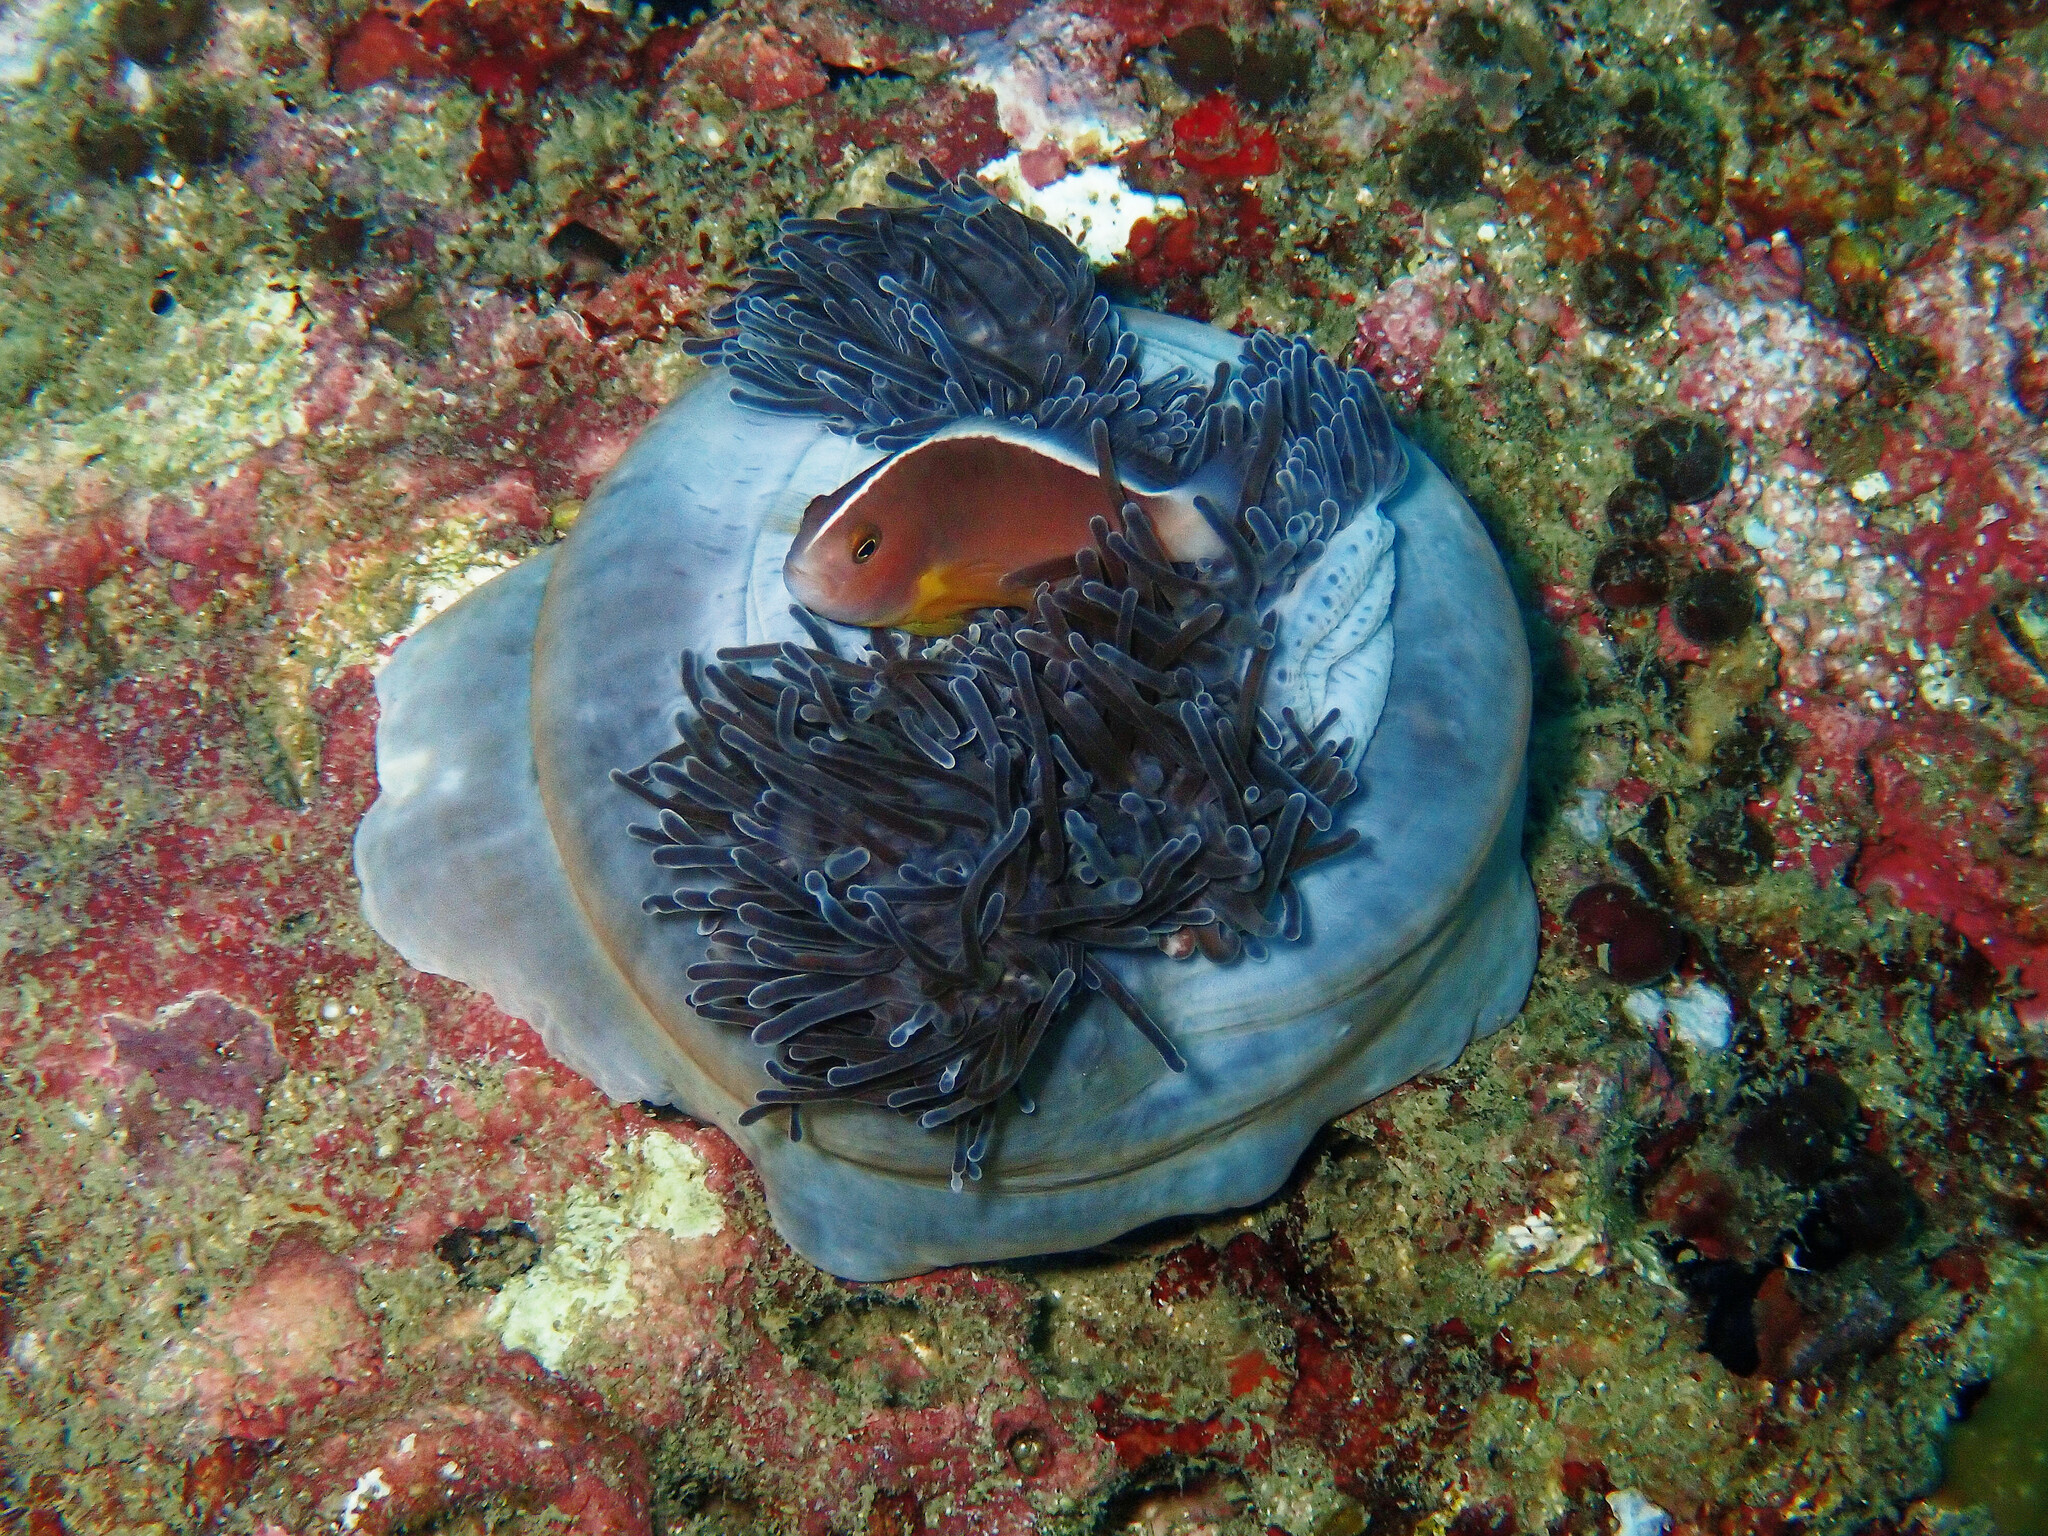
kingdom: Animalia
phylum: Chordata
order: Perciformes
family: Pomacentridae
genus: Amphiprion
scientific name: Amphiprion akallopisos
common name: Skunk clownfish
